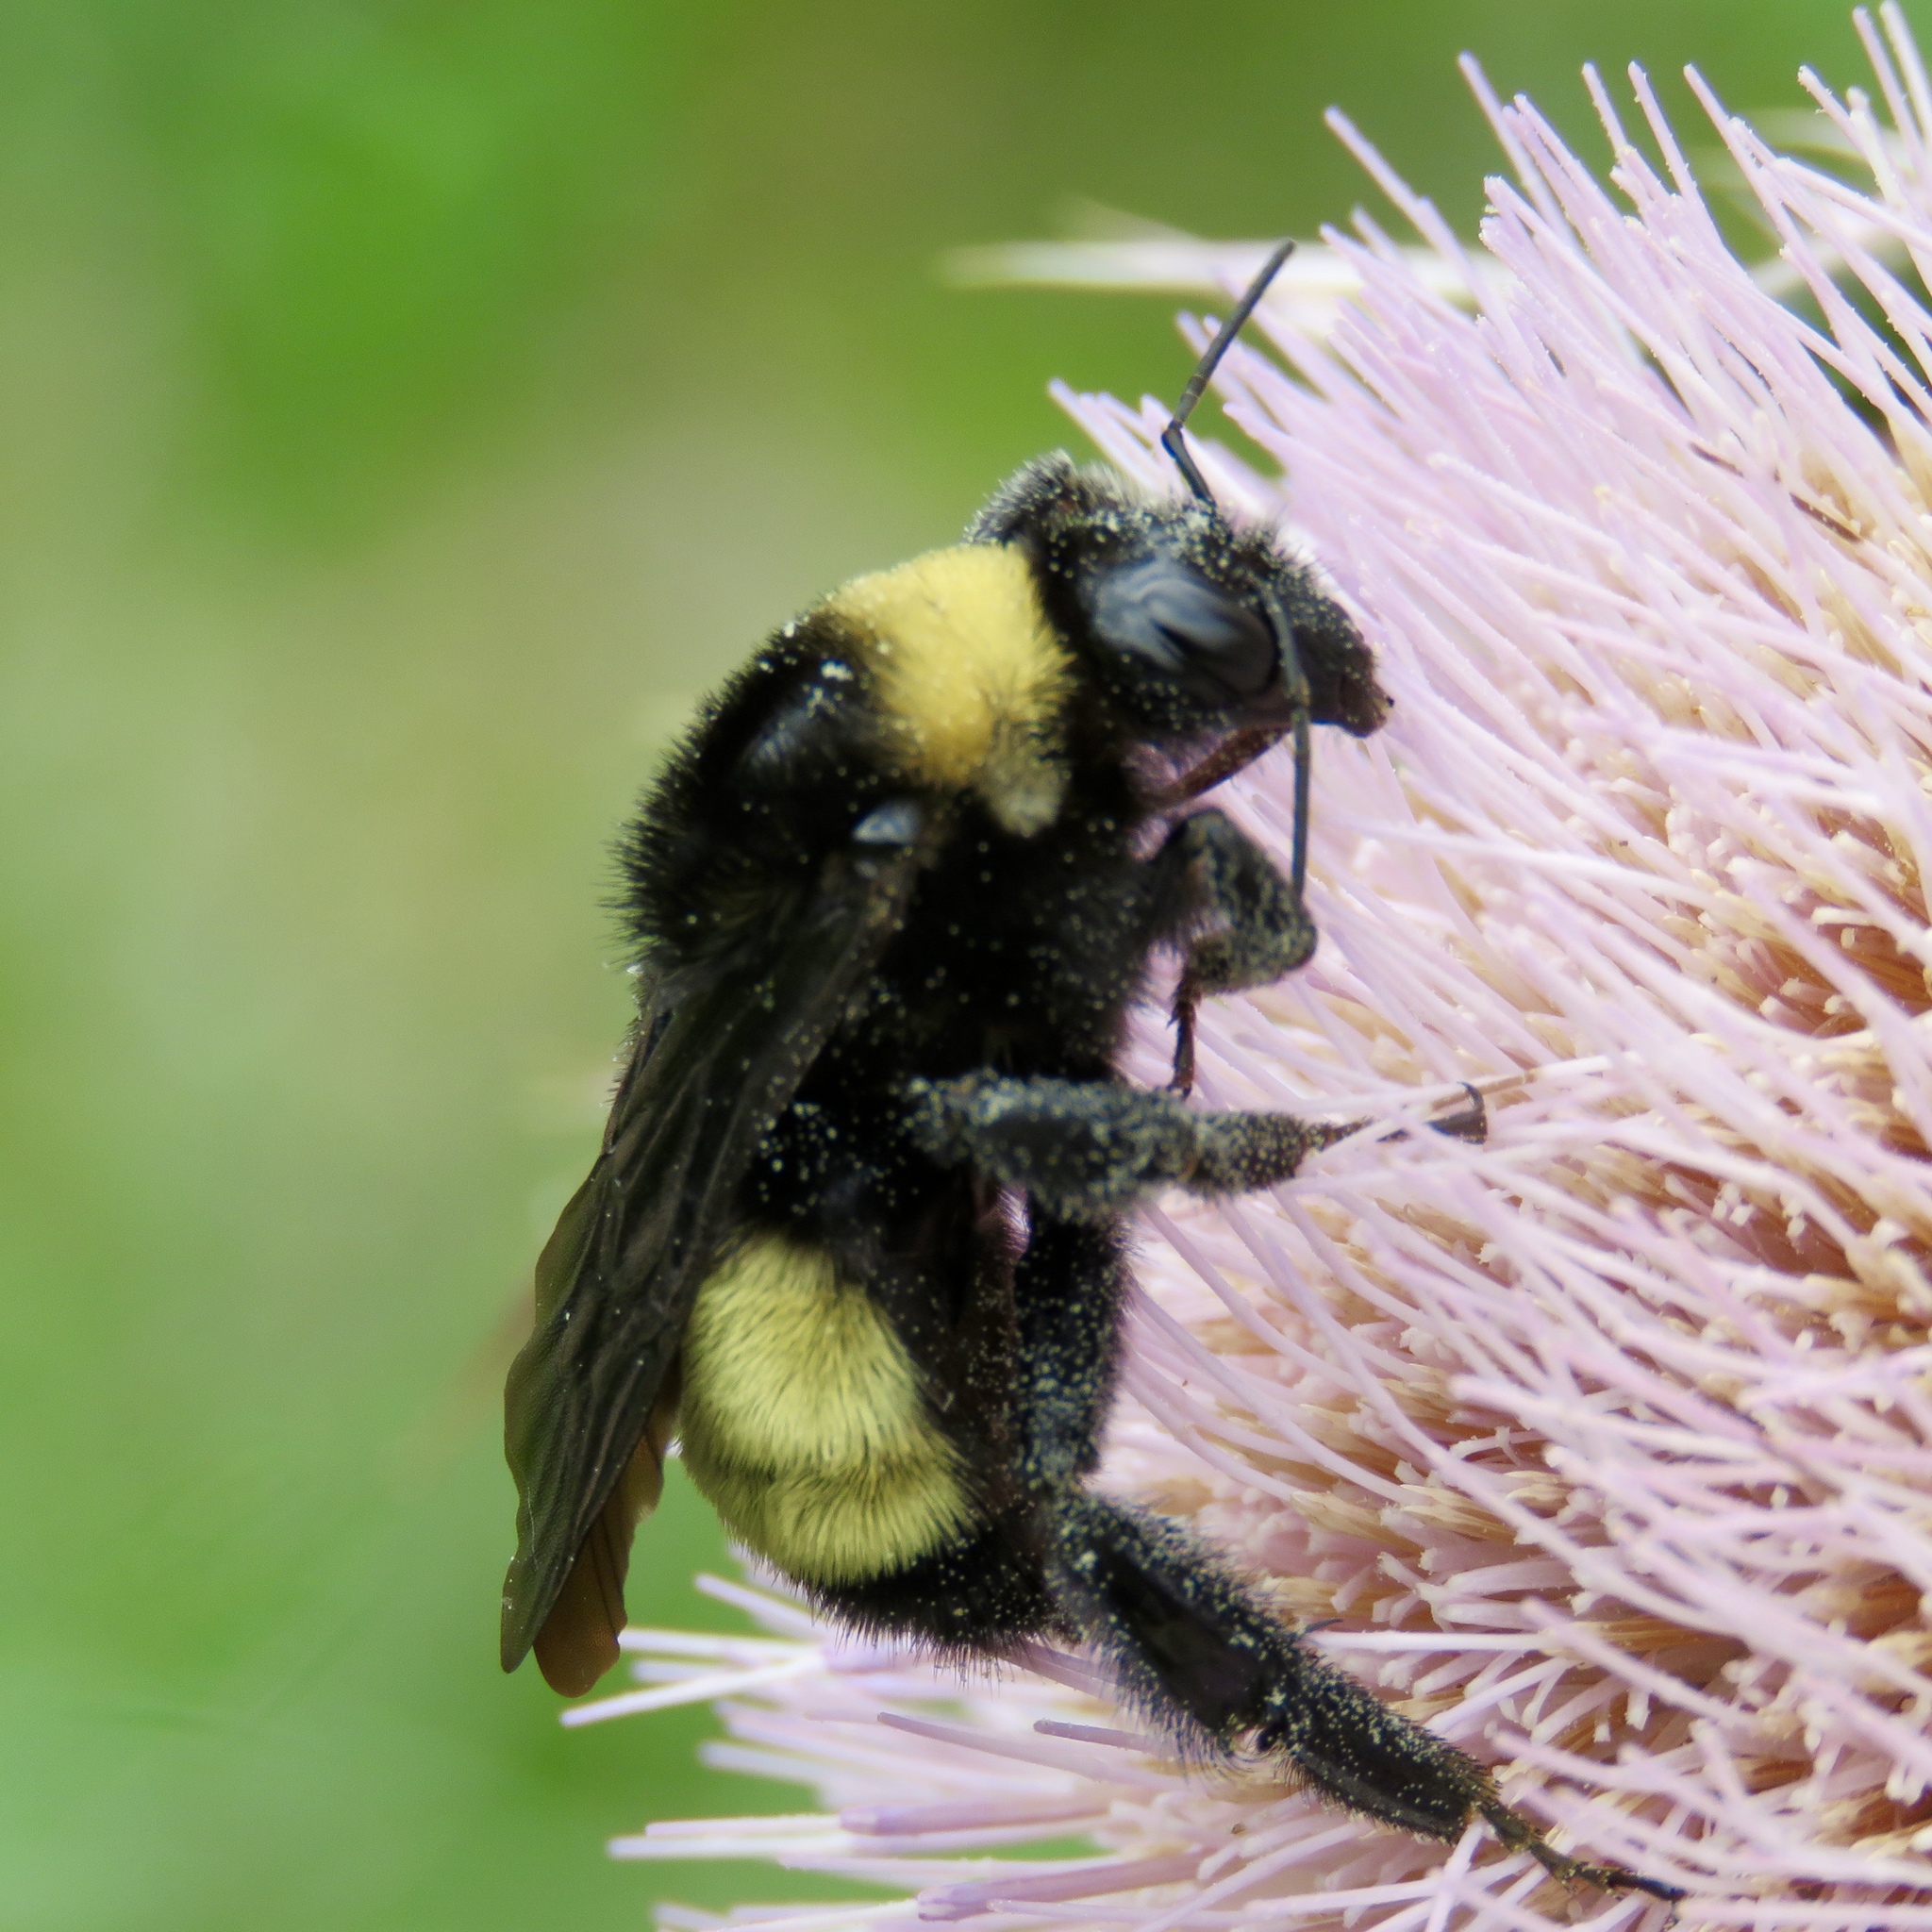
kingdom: Animalia
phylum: Arthropoda
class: Insecta
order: Hymenoptera
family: Apidae
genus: Bombus
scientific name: Bombus pensylvanicus
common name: Bumble bee
